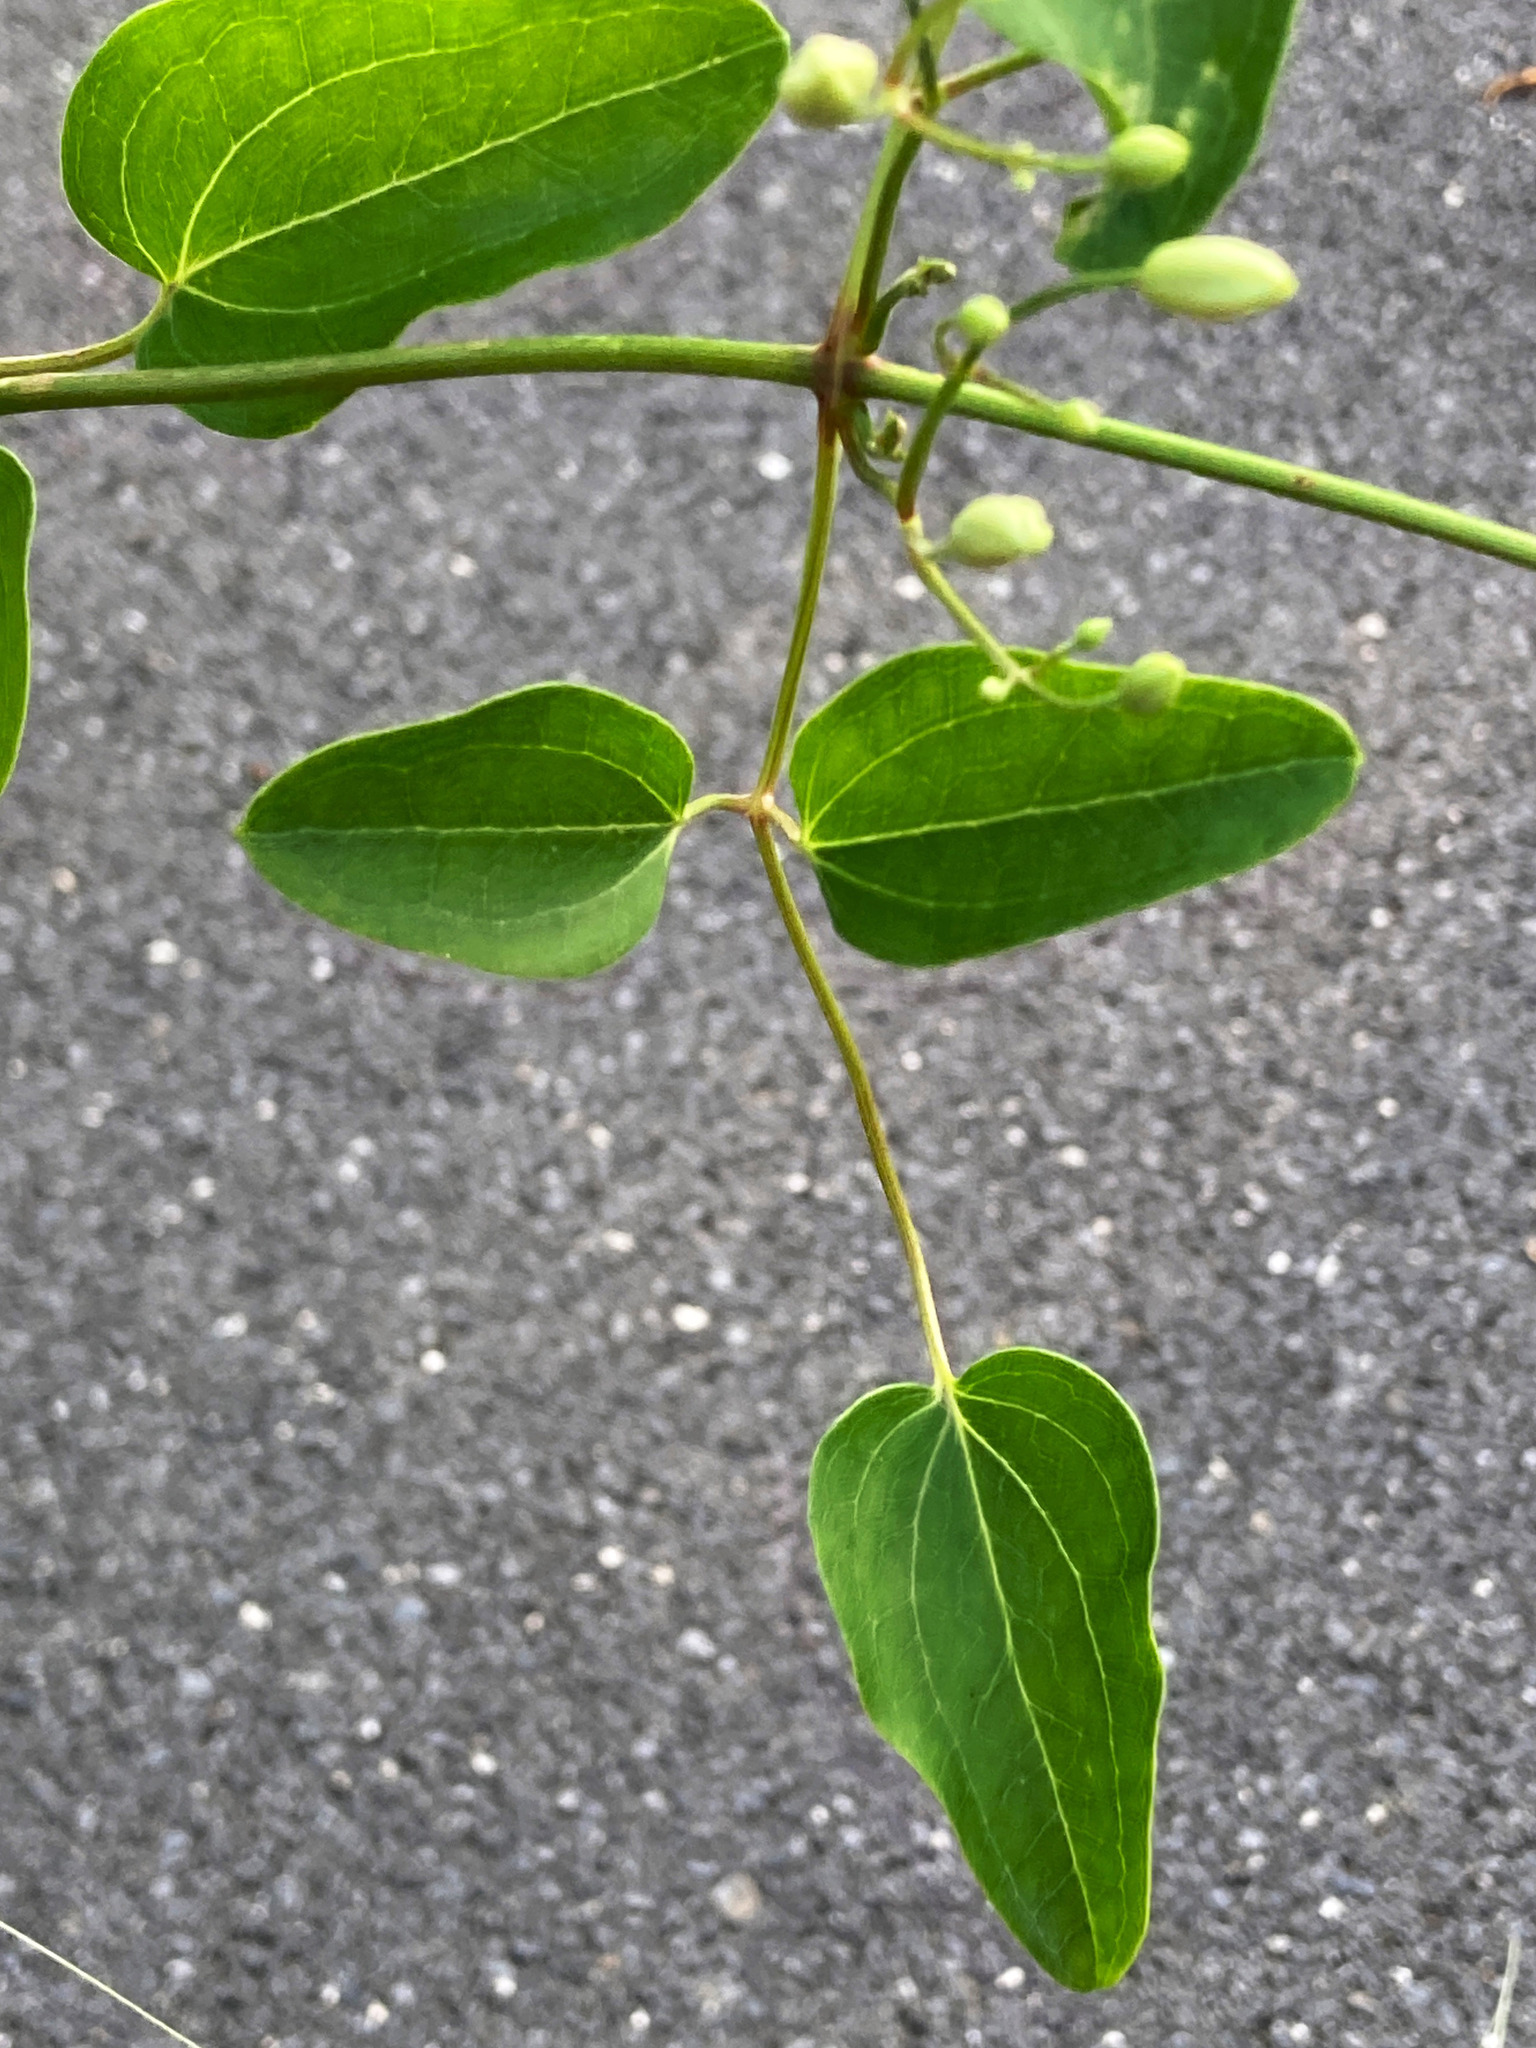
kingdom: Plantae
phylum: Tracheophyta
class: Magnoliopsida
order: Ranunculales
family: Ranunculaceae
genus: Clematis
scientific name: Clematis terniflora
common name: Sweet autumn clematis
